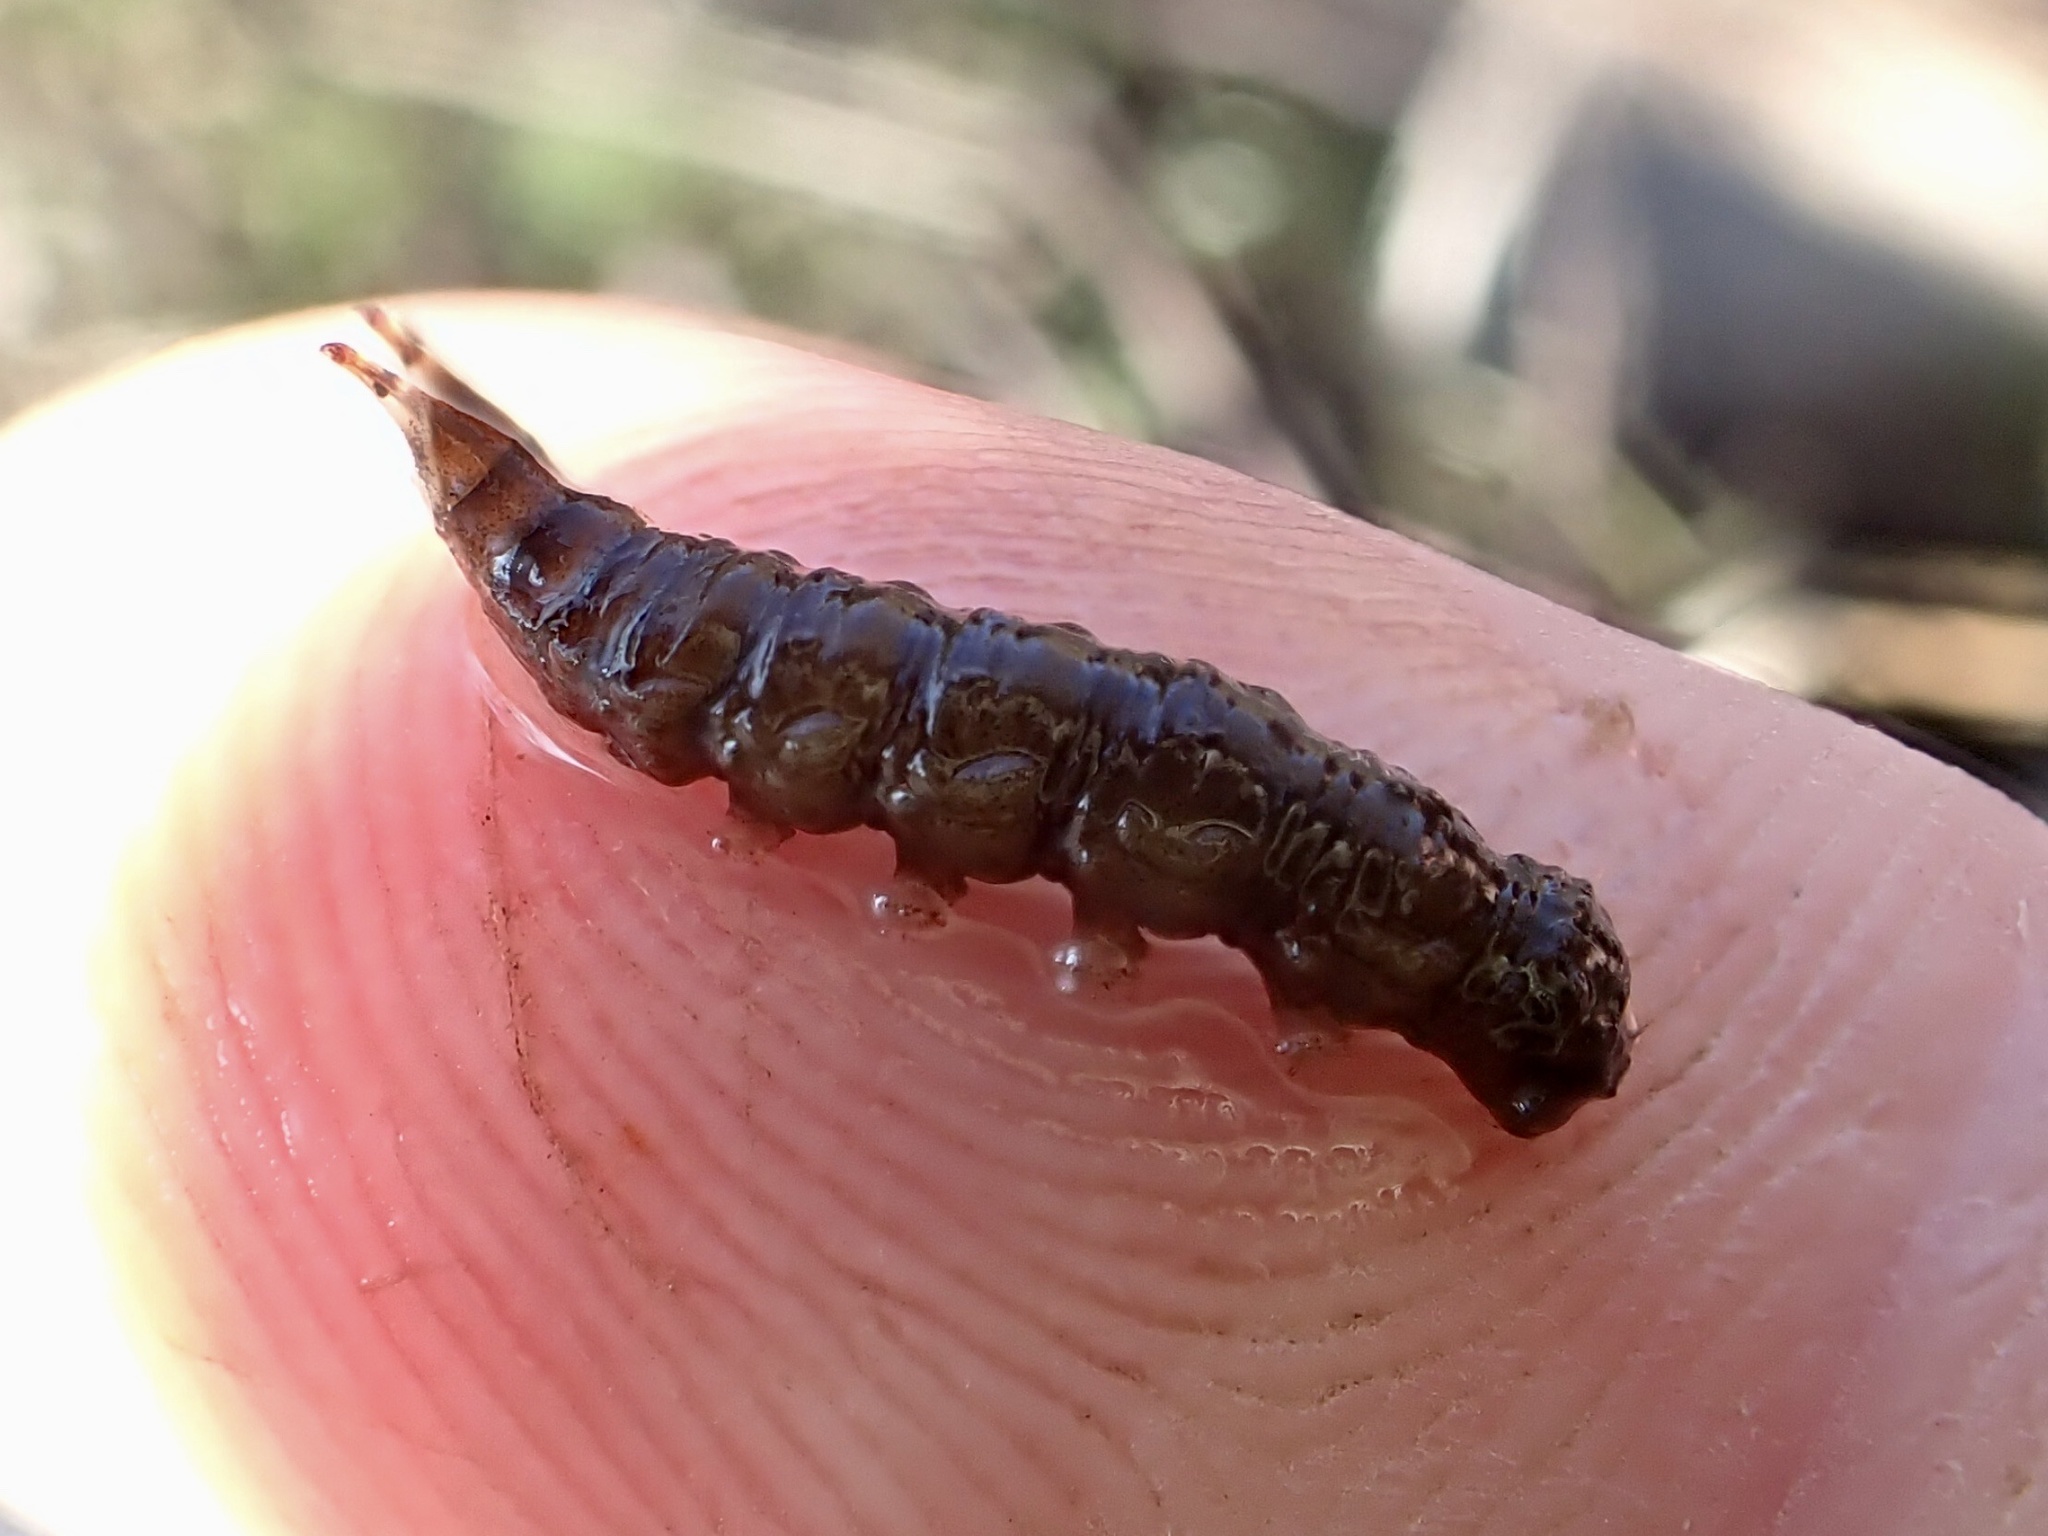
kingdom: Animalia
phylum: Arthropoda
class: Insecta
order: Diptera
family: Athericidae
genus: Atherix
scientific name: Atherix ibis
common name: Yellow-legged water-snipefly
